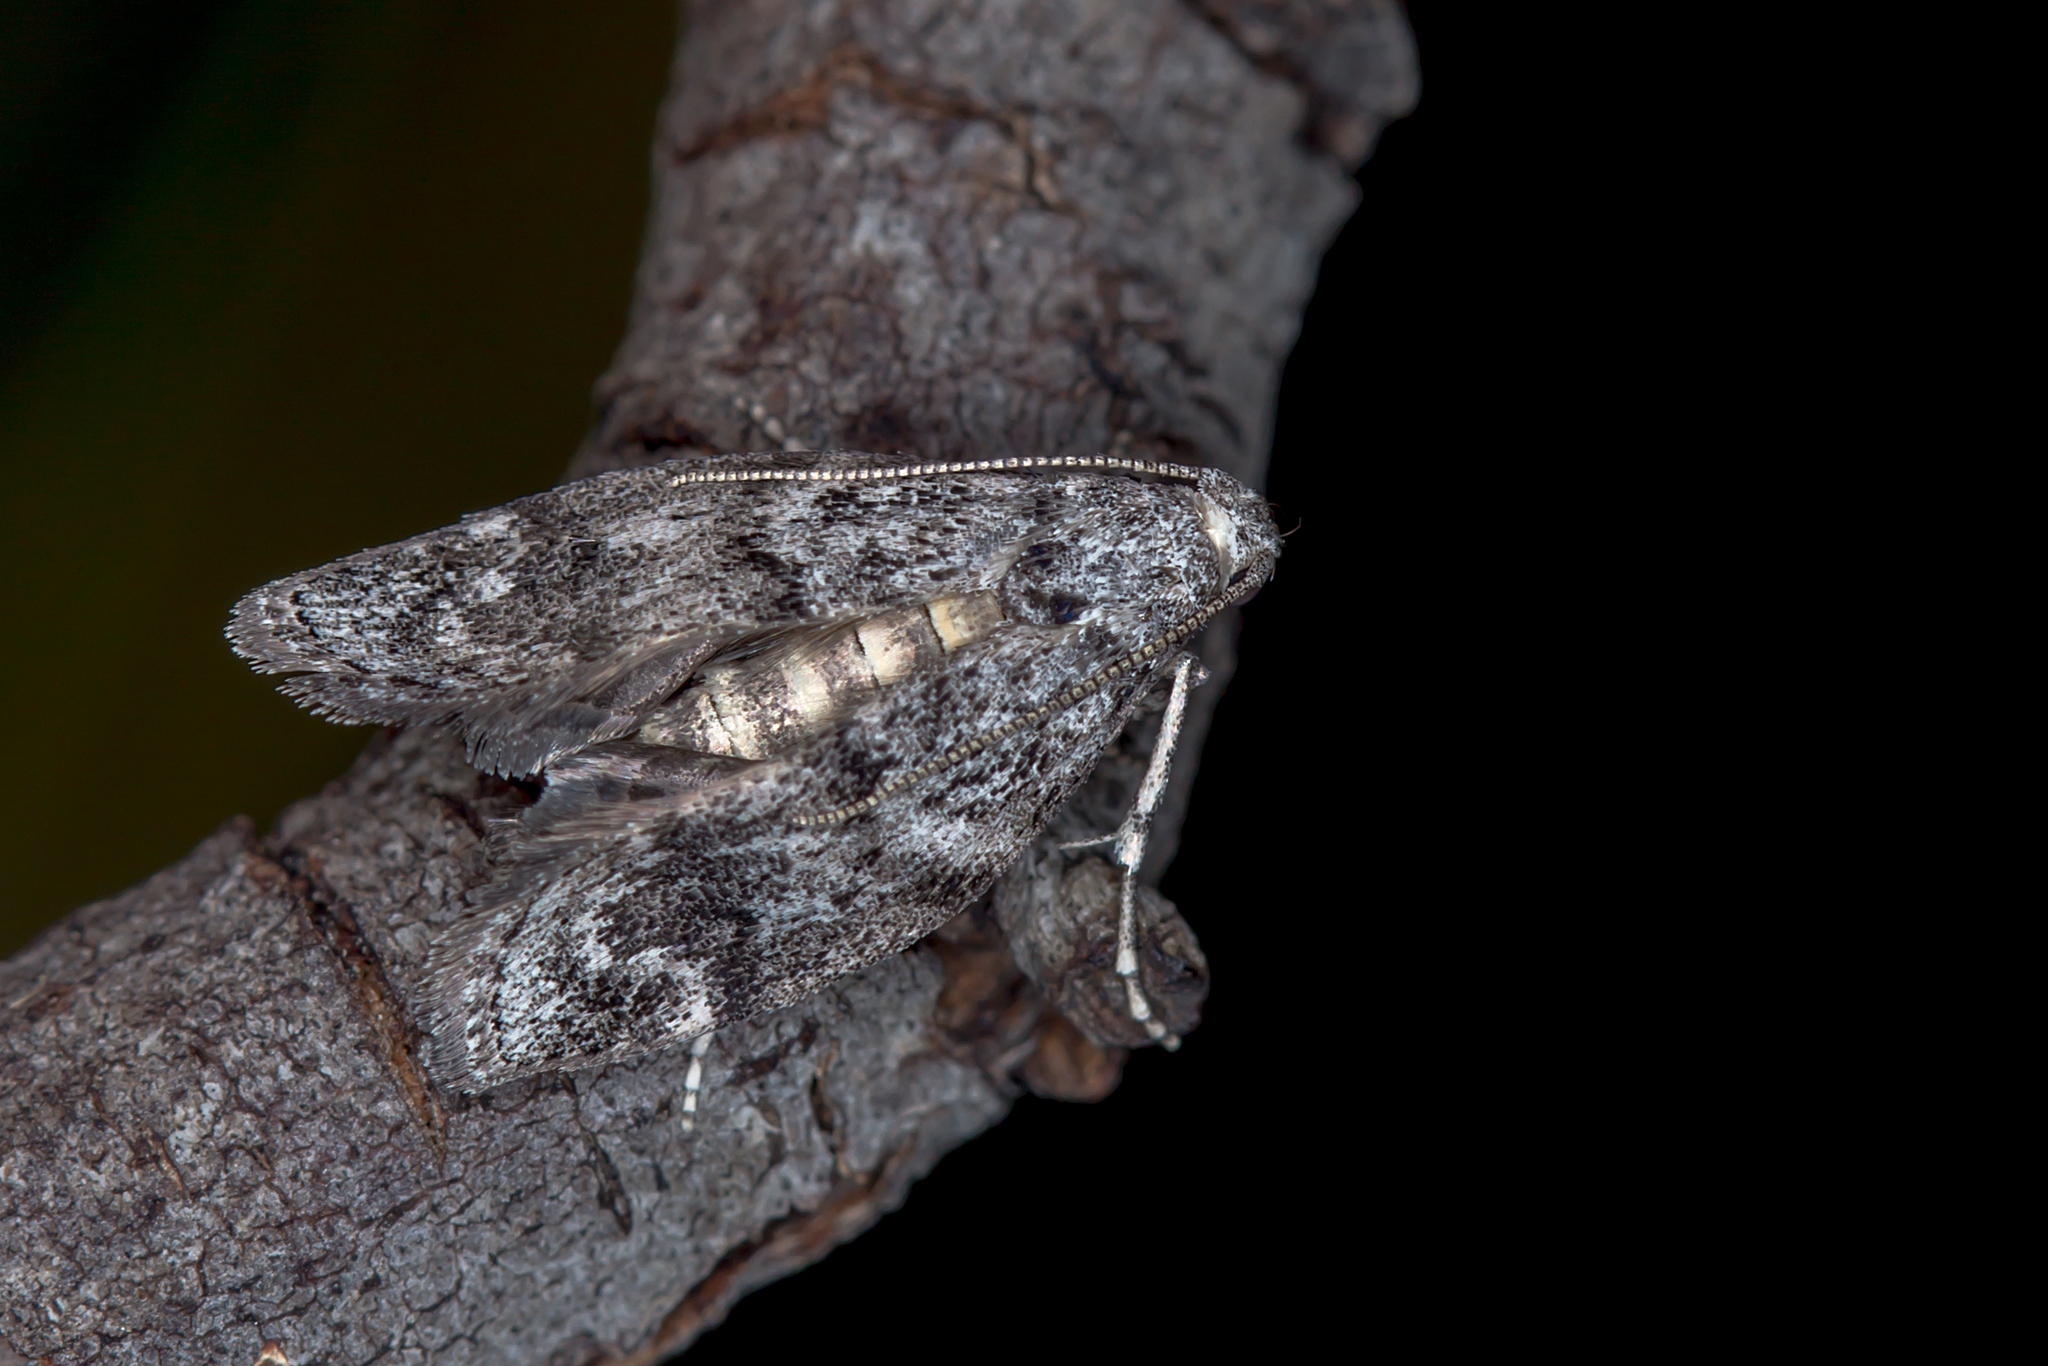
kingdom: Animalia
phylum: Arthropoda
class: Insecta
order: Lepidoptera
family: Pyralidae
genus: Heteromicta
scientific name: Heteromicta pachytera
